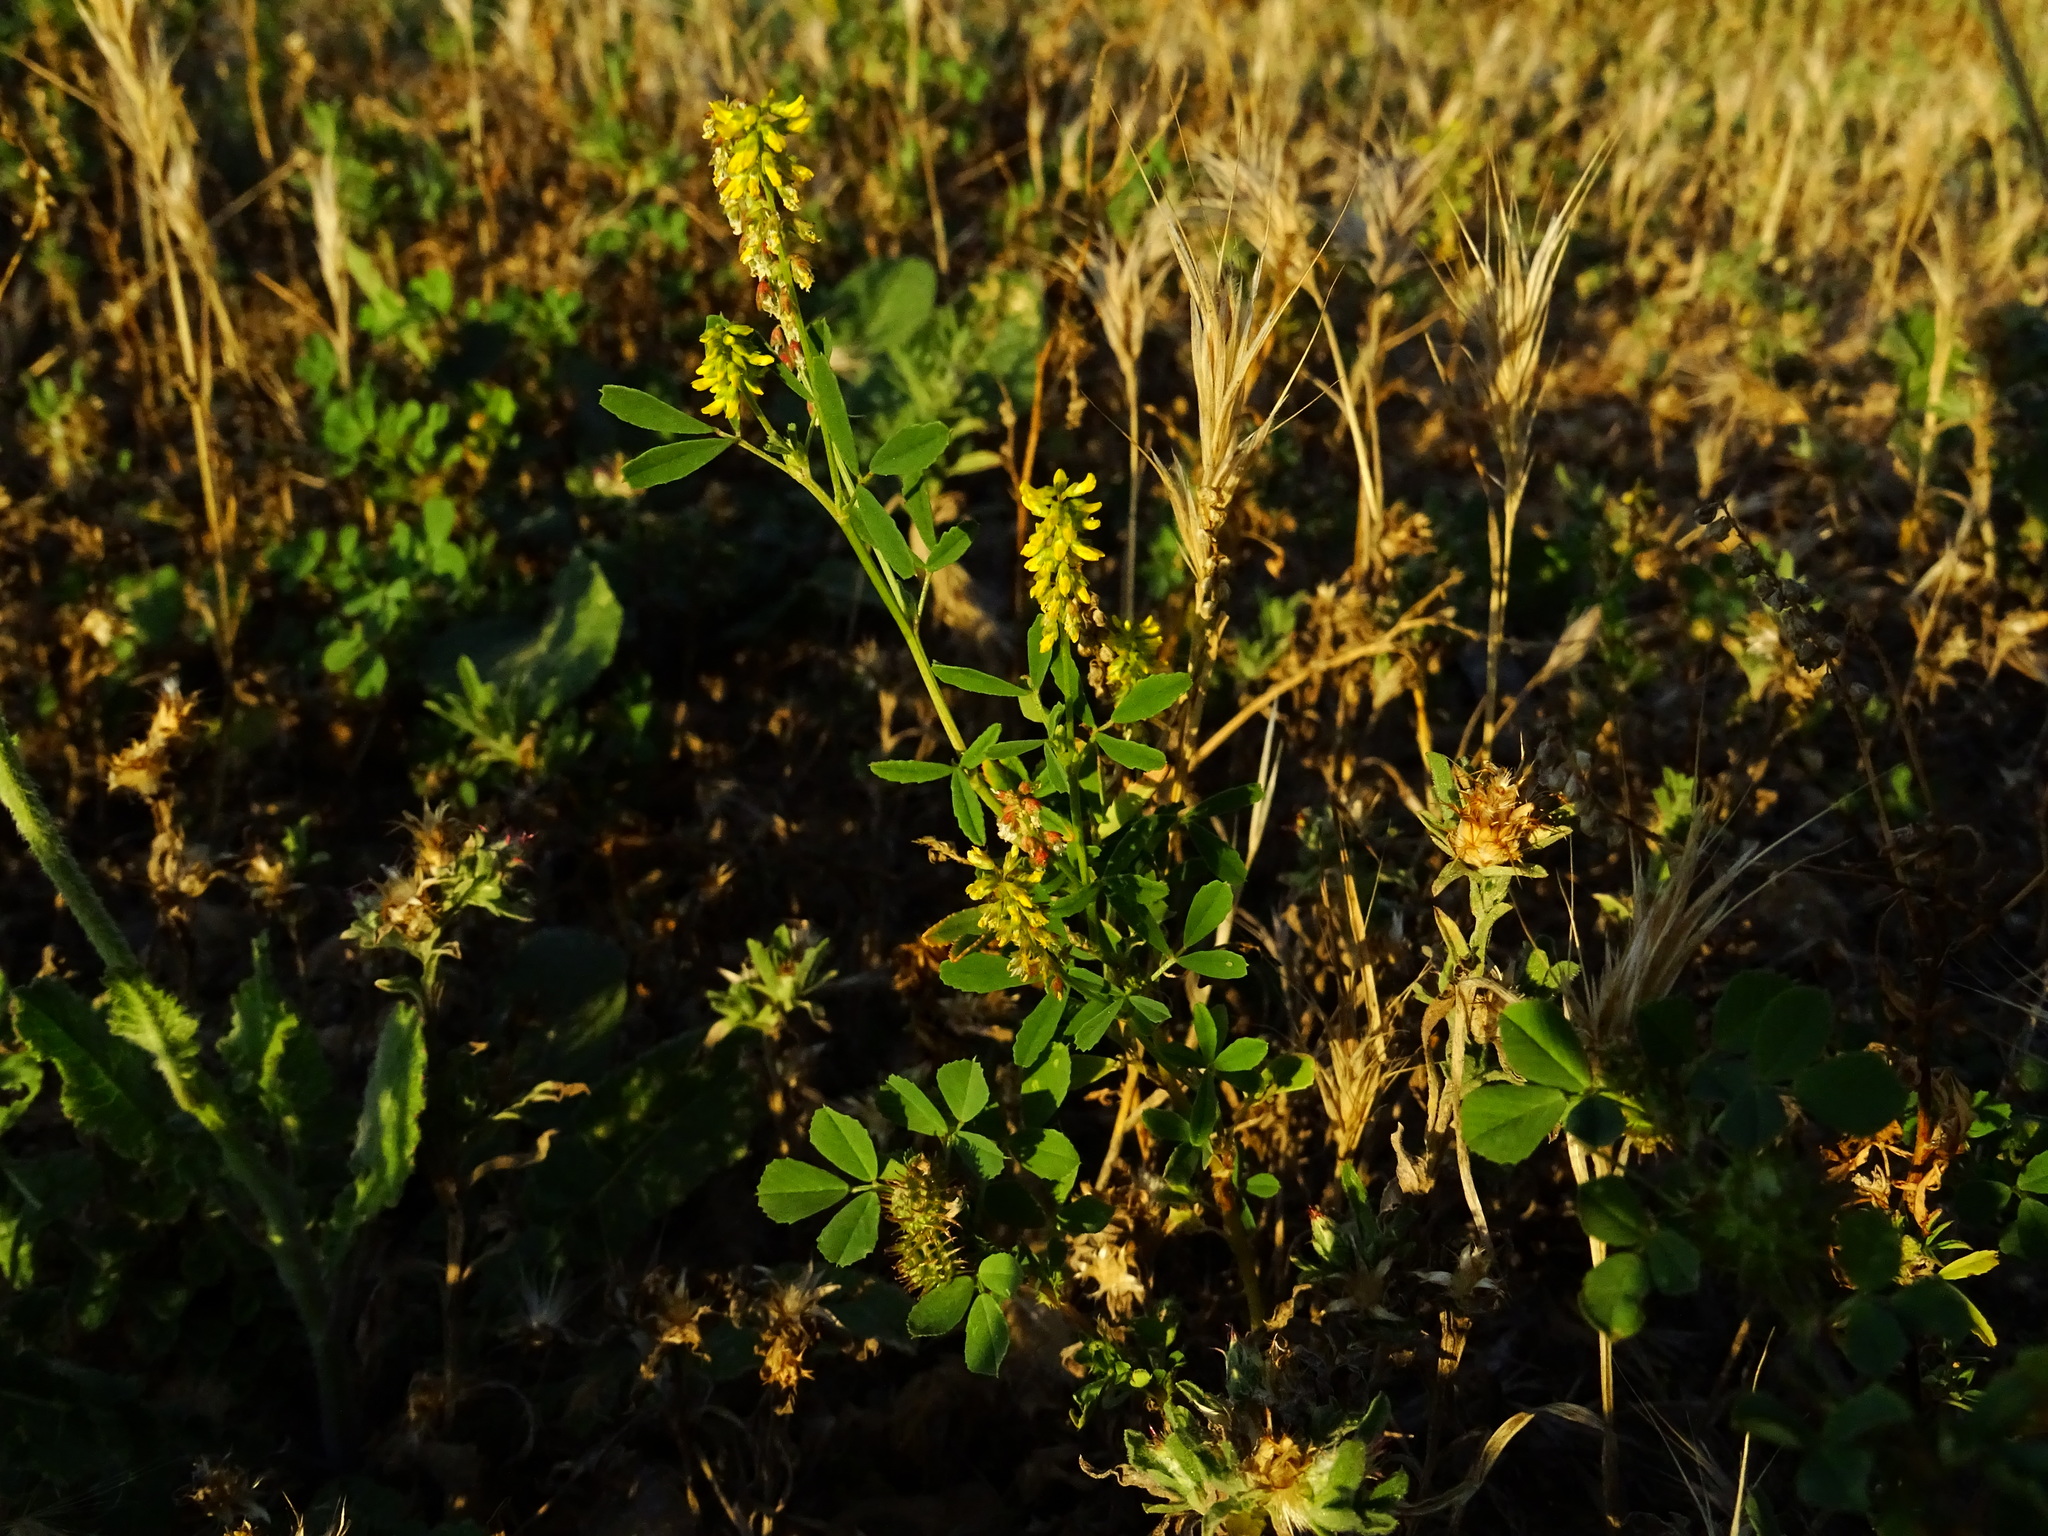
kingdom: Plantae
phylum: Tracheophyta
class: Magnoliopsida
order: Fabales
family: Fabaceae
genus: Melilotus
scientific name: Melilotus indicus
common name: Small melilot
